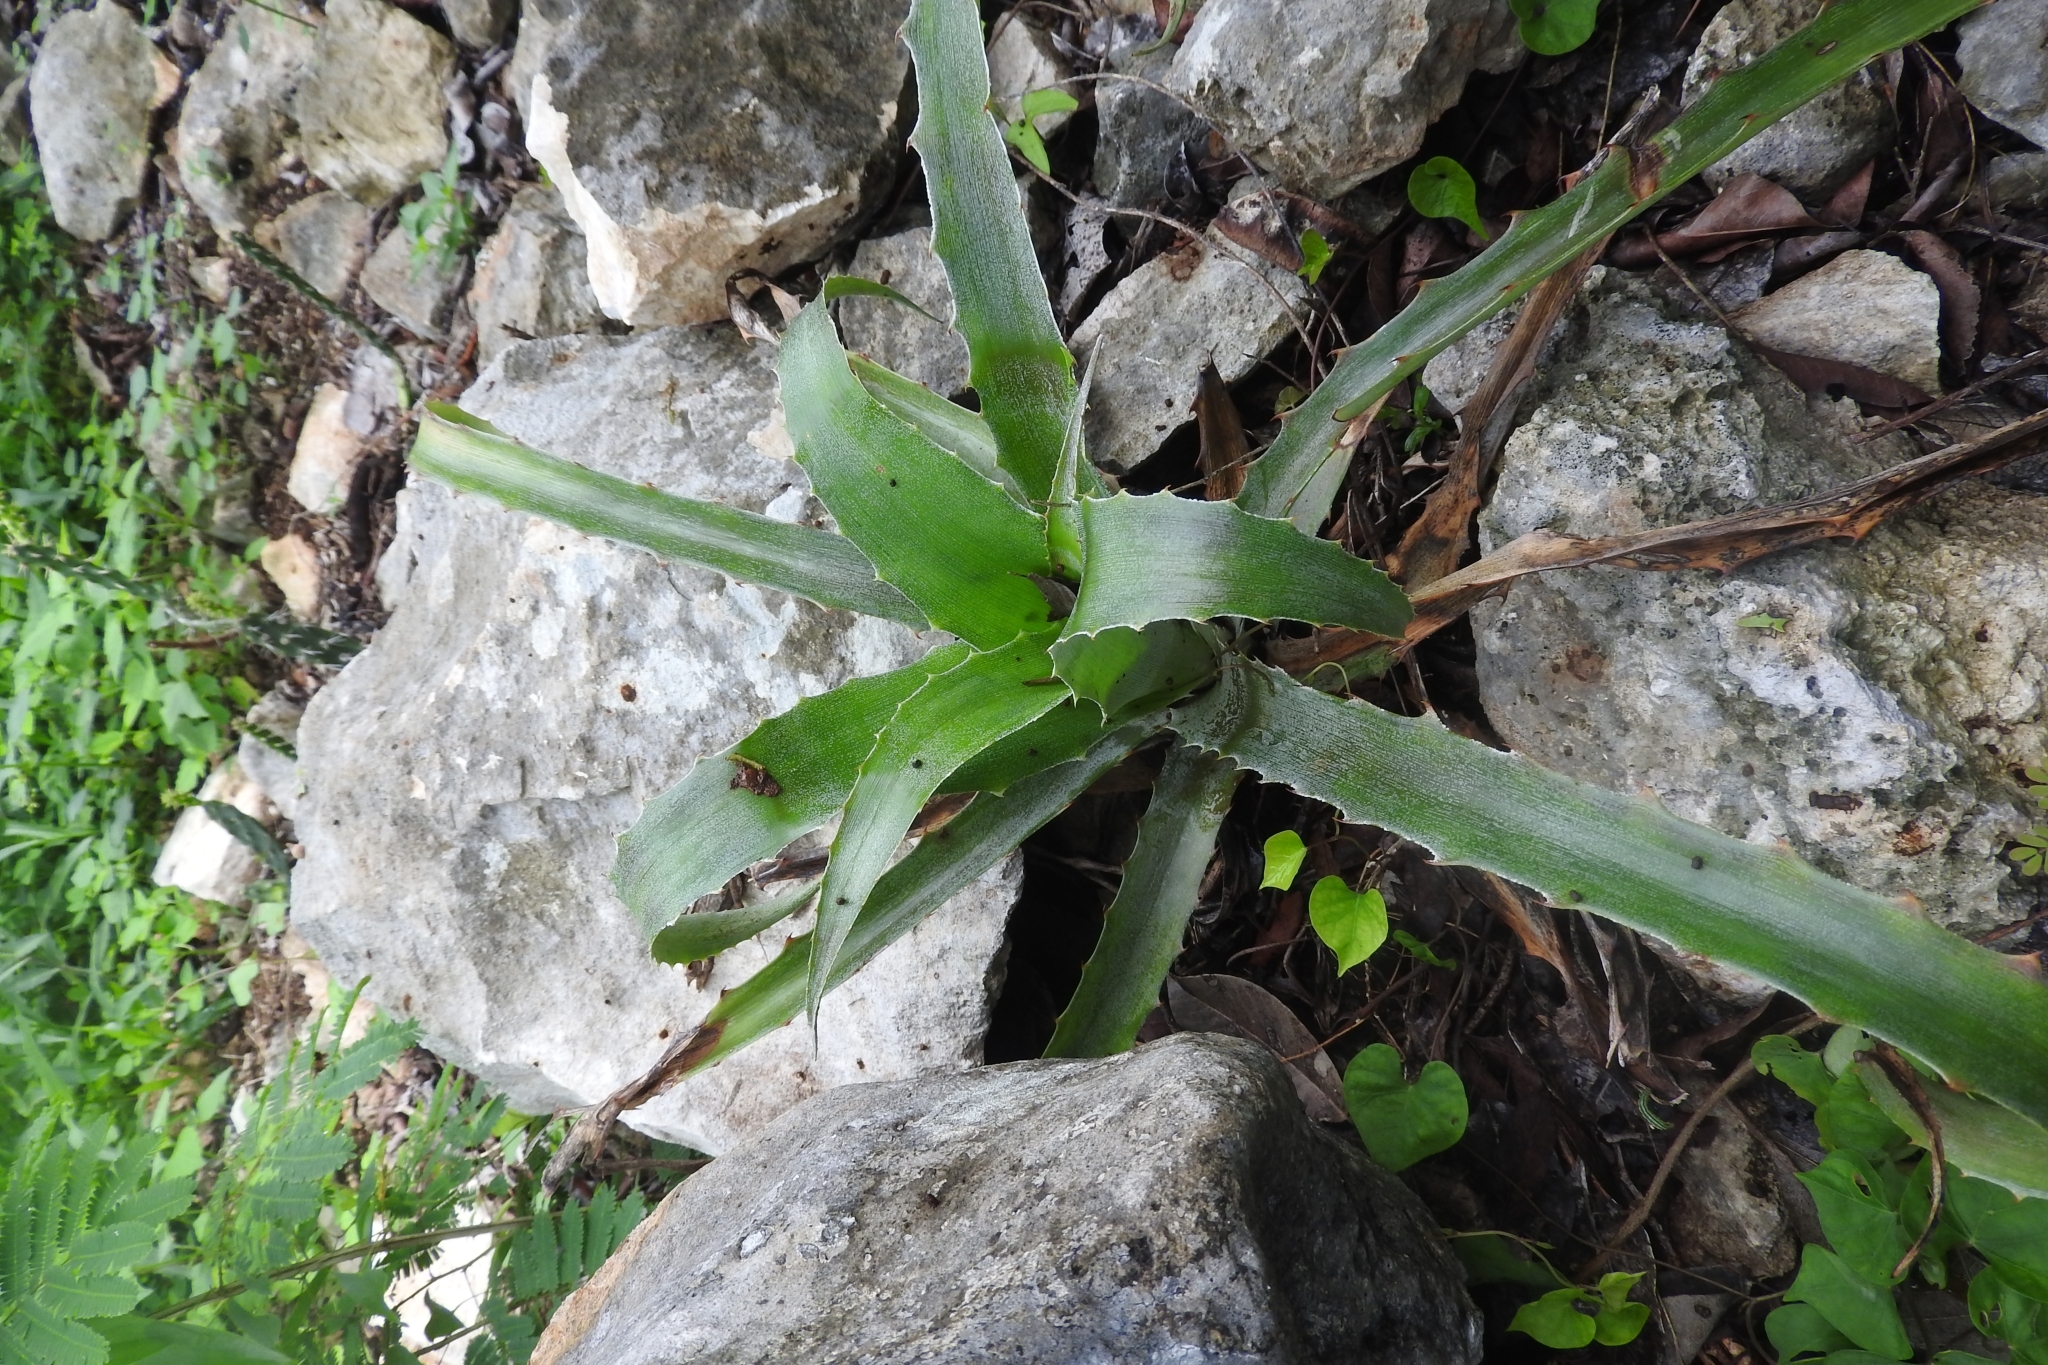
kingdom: Plantae
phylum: Tracheophyta
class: Liliopsida
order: Poales
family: Bromeliaceae
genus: Bromelia
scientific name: Bromelia pinguin
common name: Pinguin
